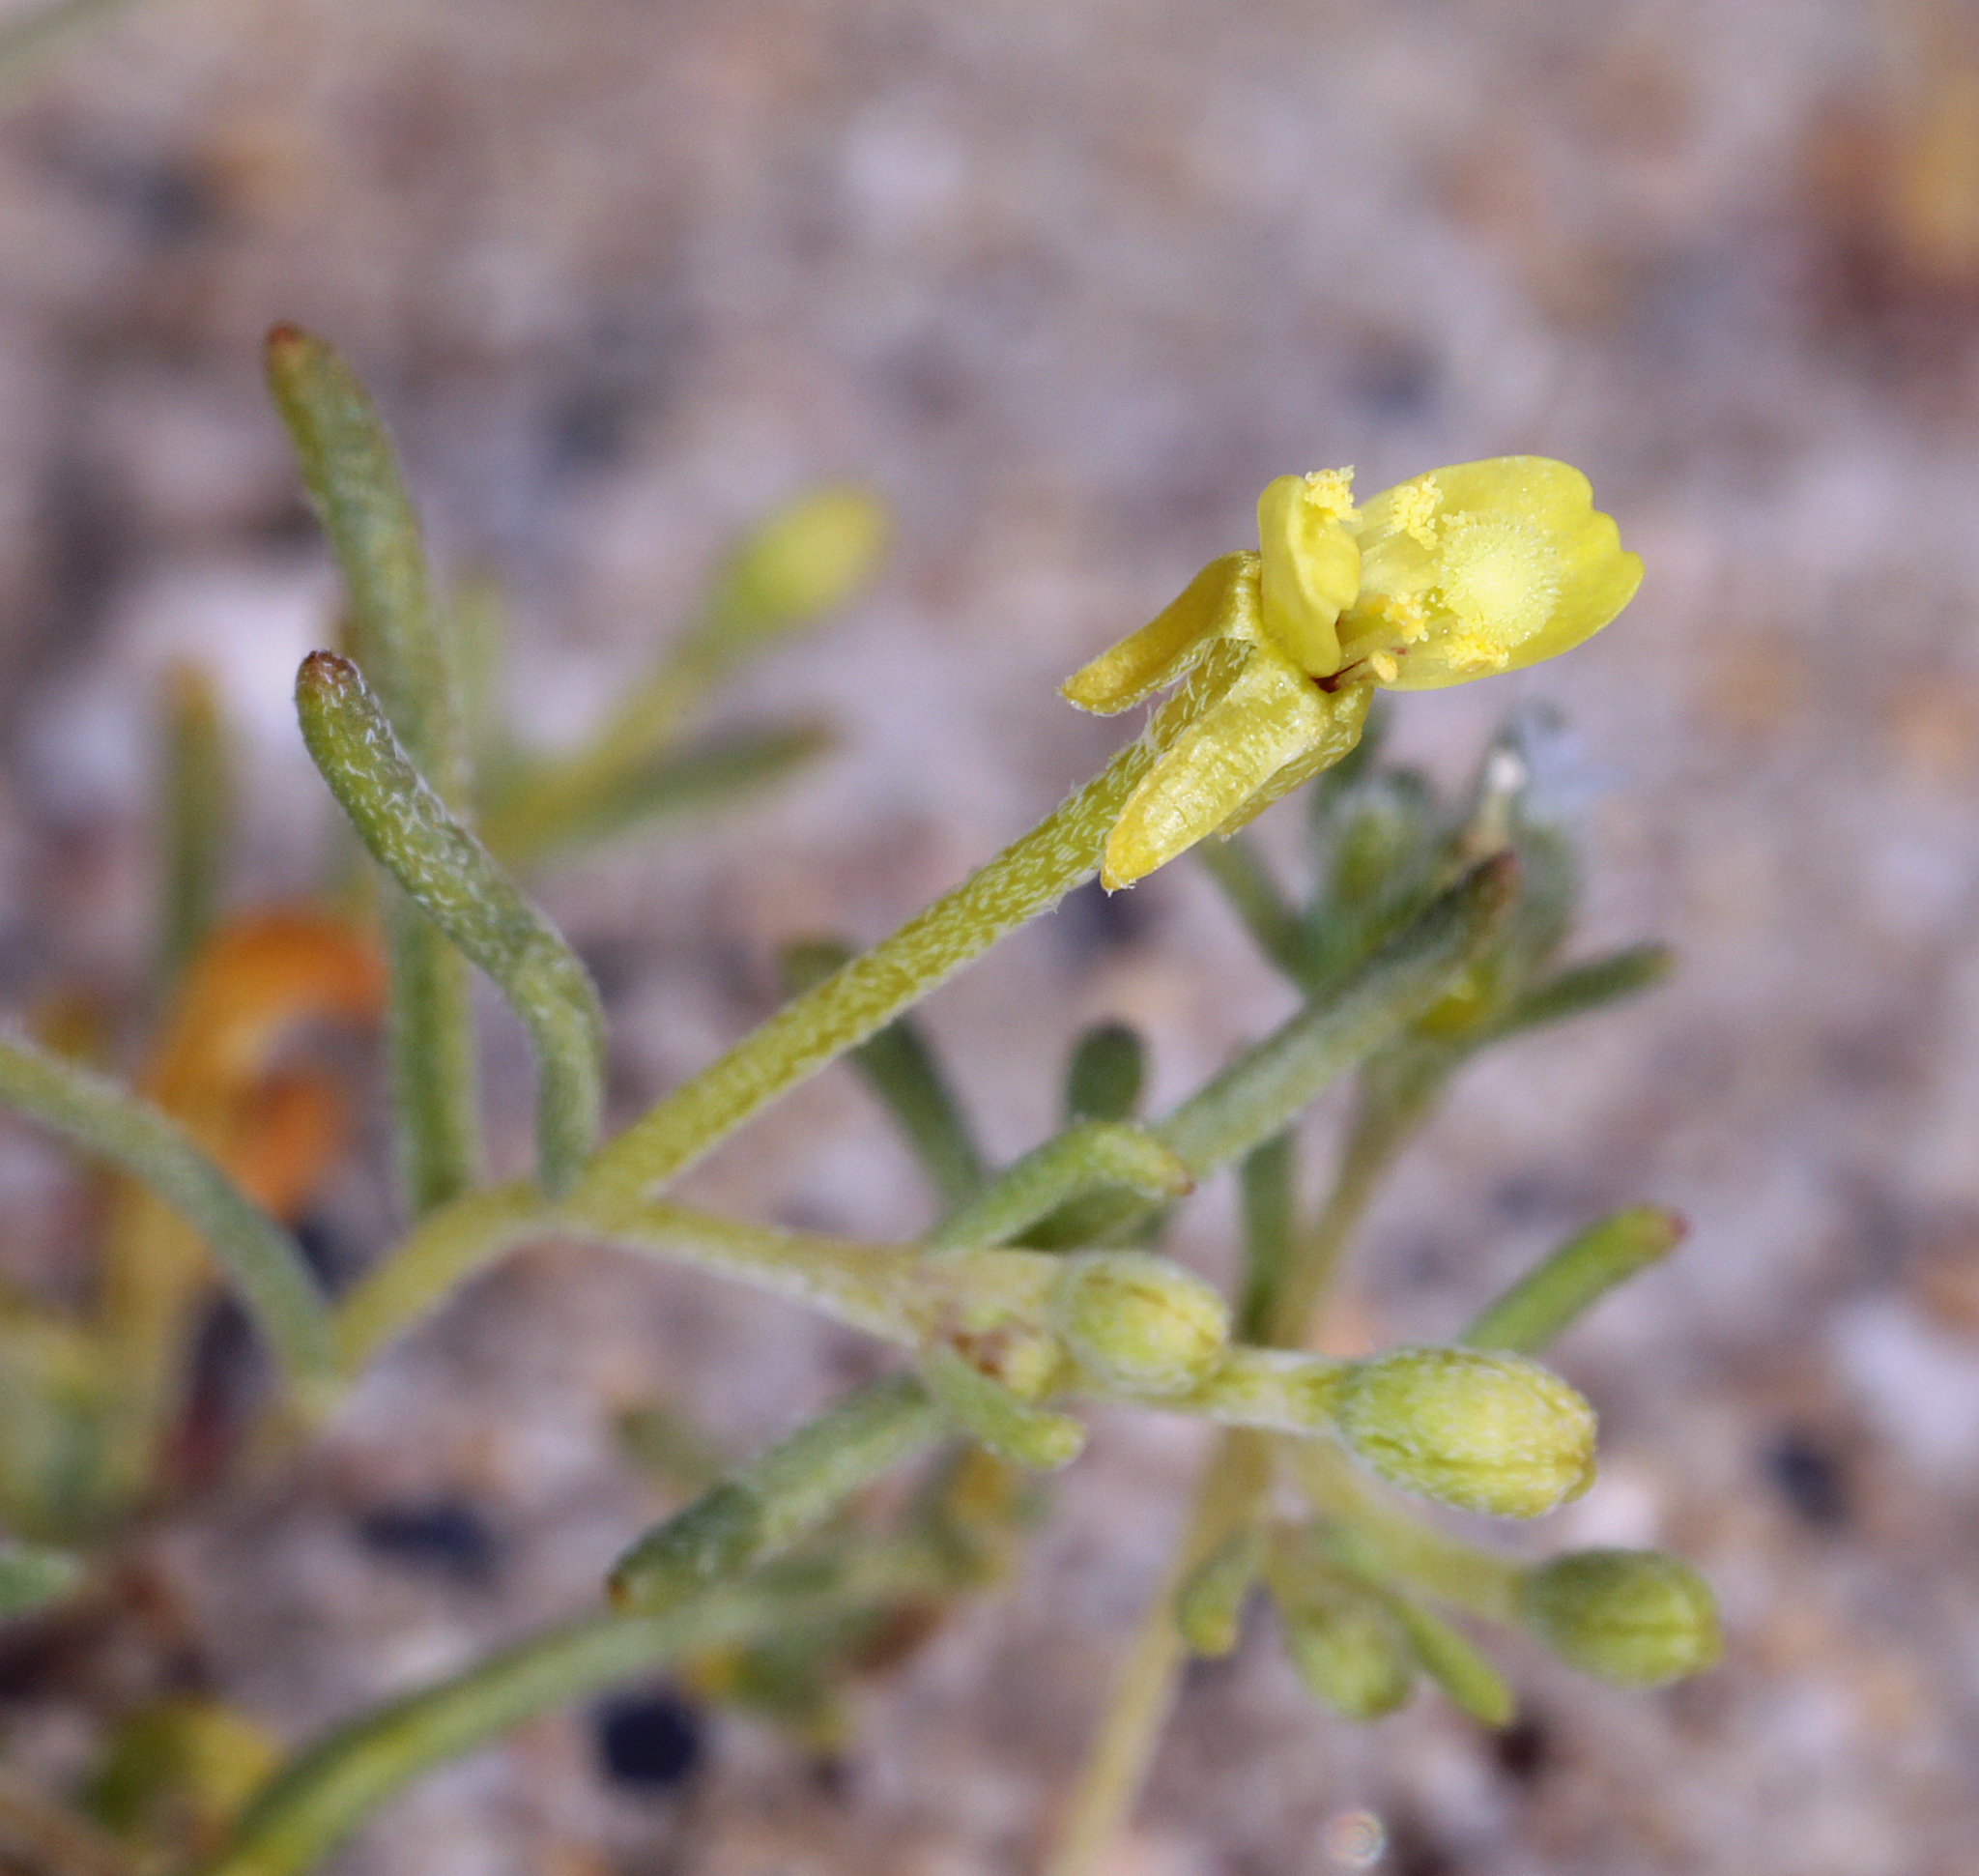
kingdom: Plantae
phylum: Tracheophyta
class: Magnoliopsida
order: Myrtales
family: Onagraceae
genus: Camissonia
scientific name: Camissonia parvula
